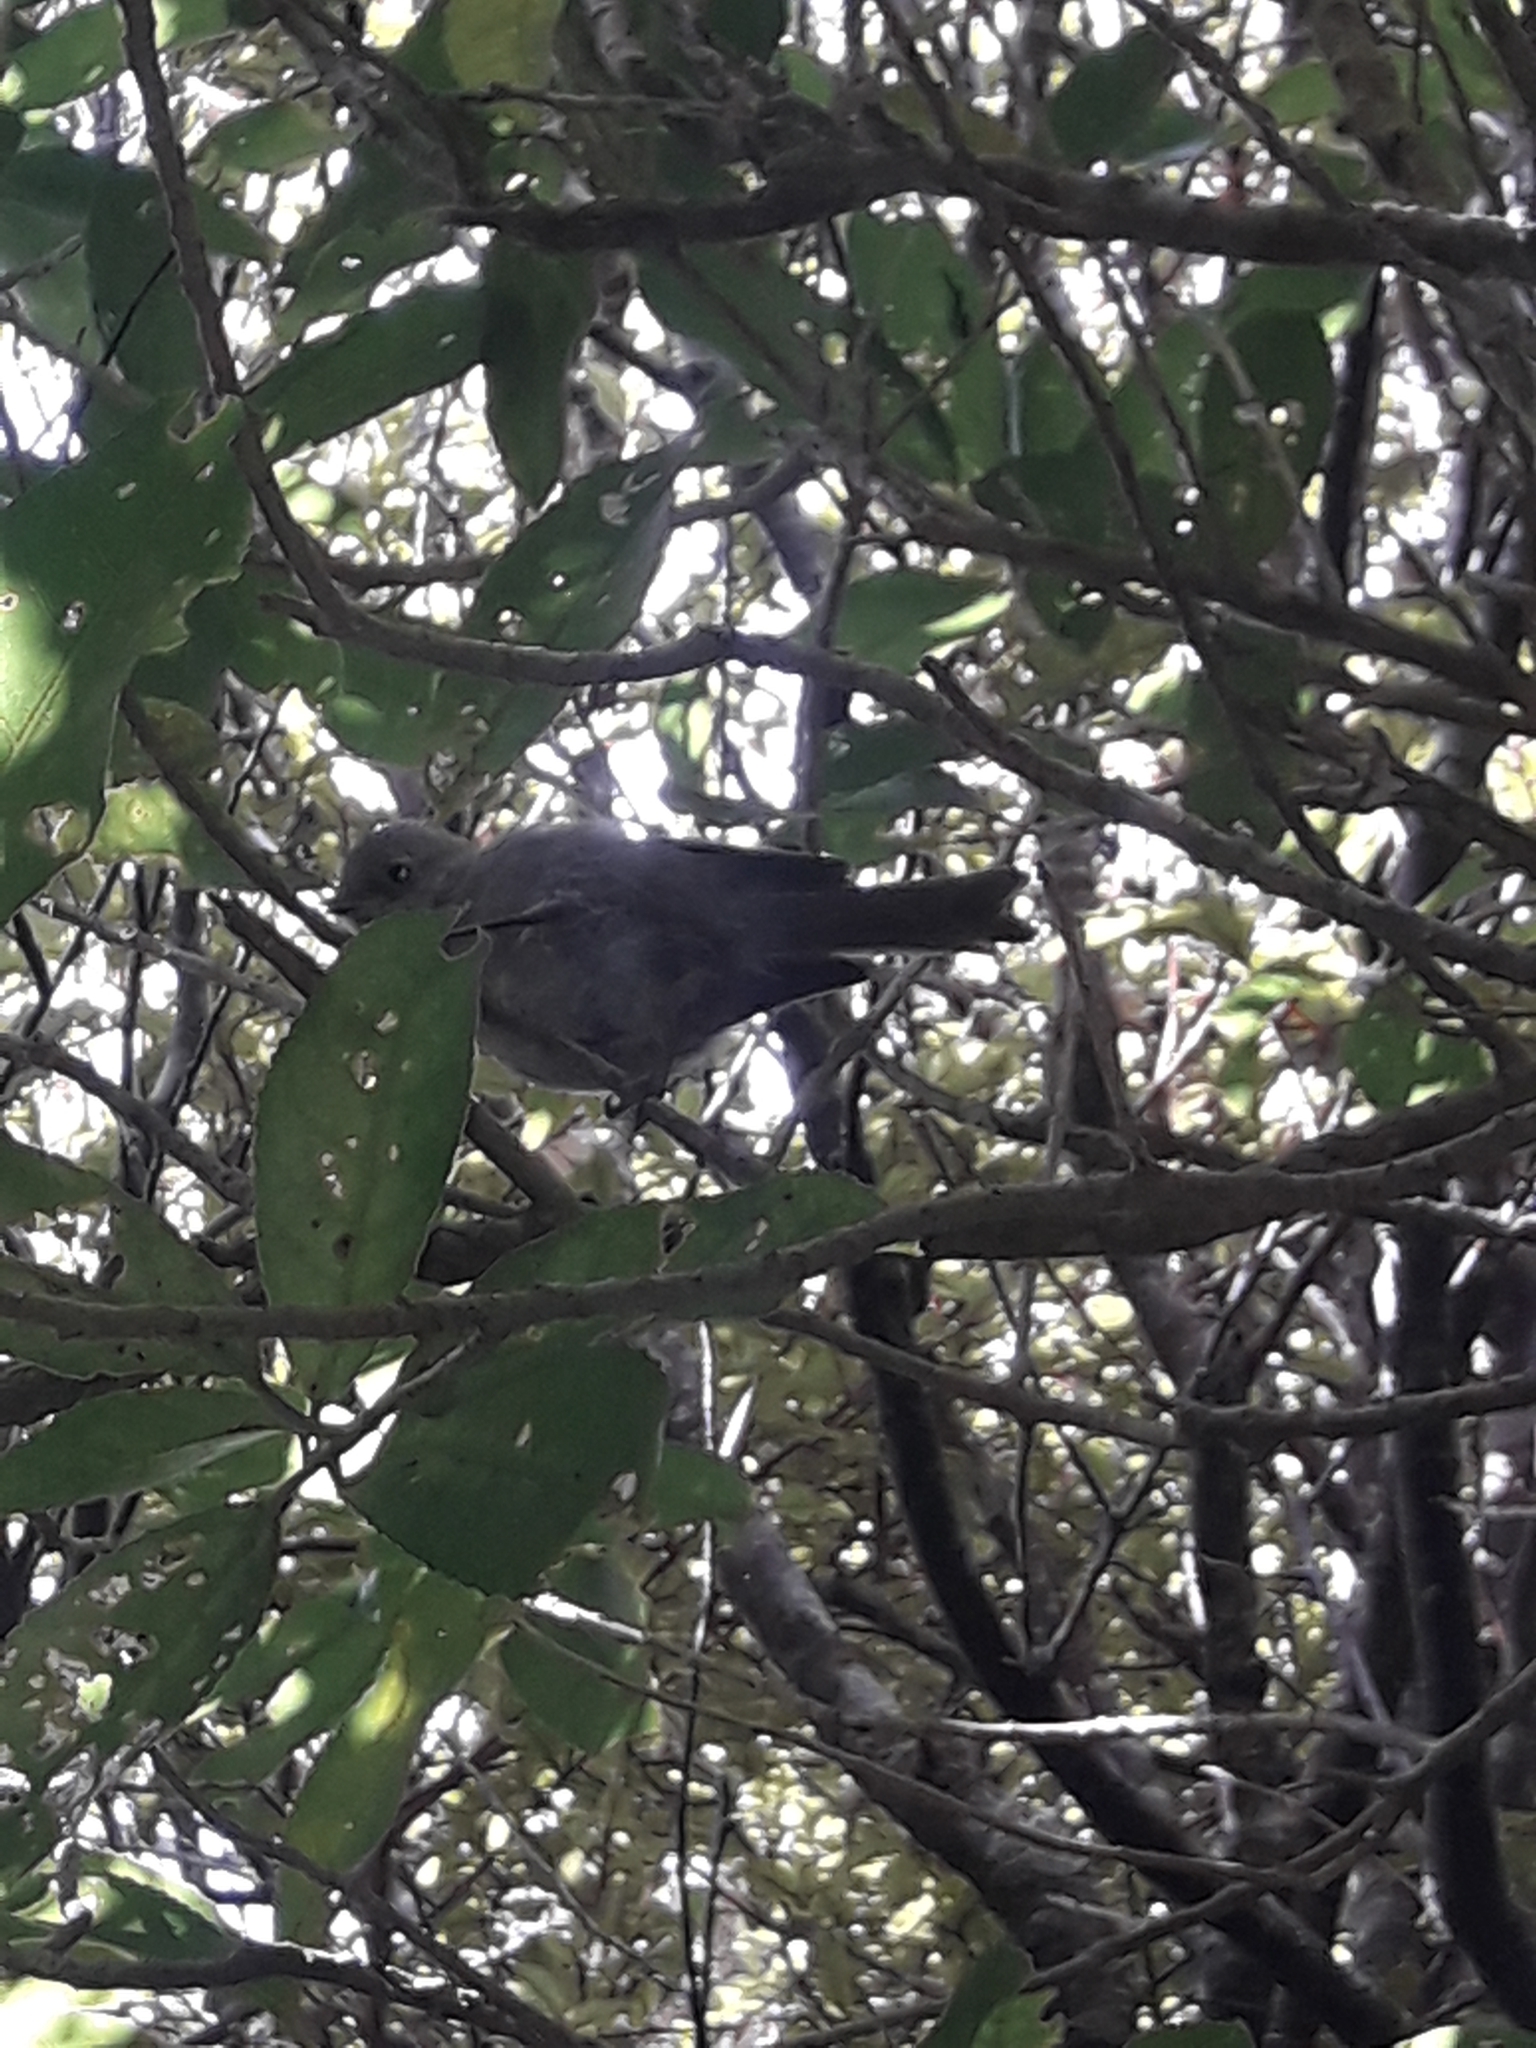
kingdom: Animalia
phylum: Chordata
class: Aves
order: Passeriformes
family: Acanthizidae
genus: Mohoua
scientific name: Mohoua albicilla
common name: Whitehead
